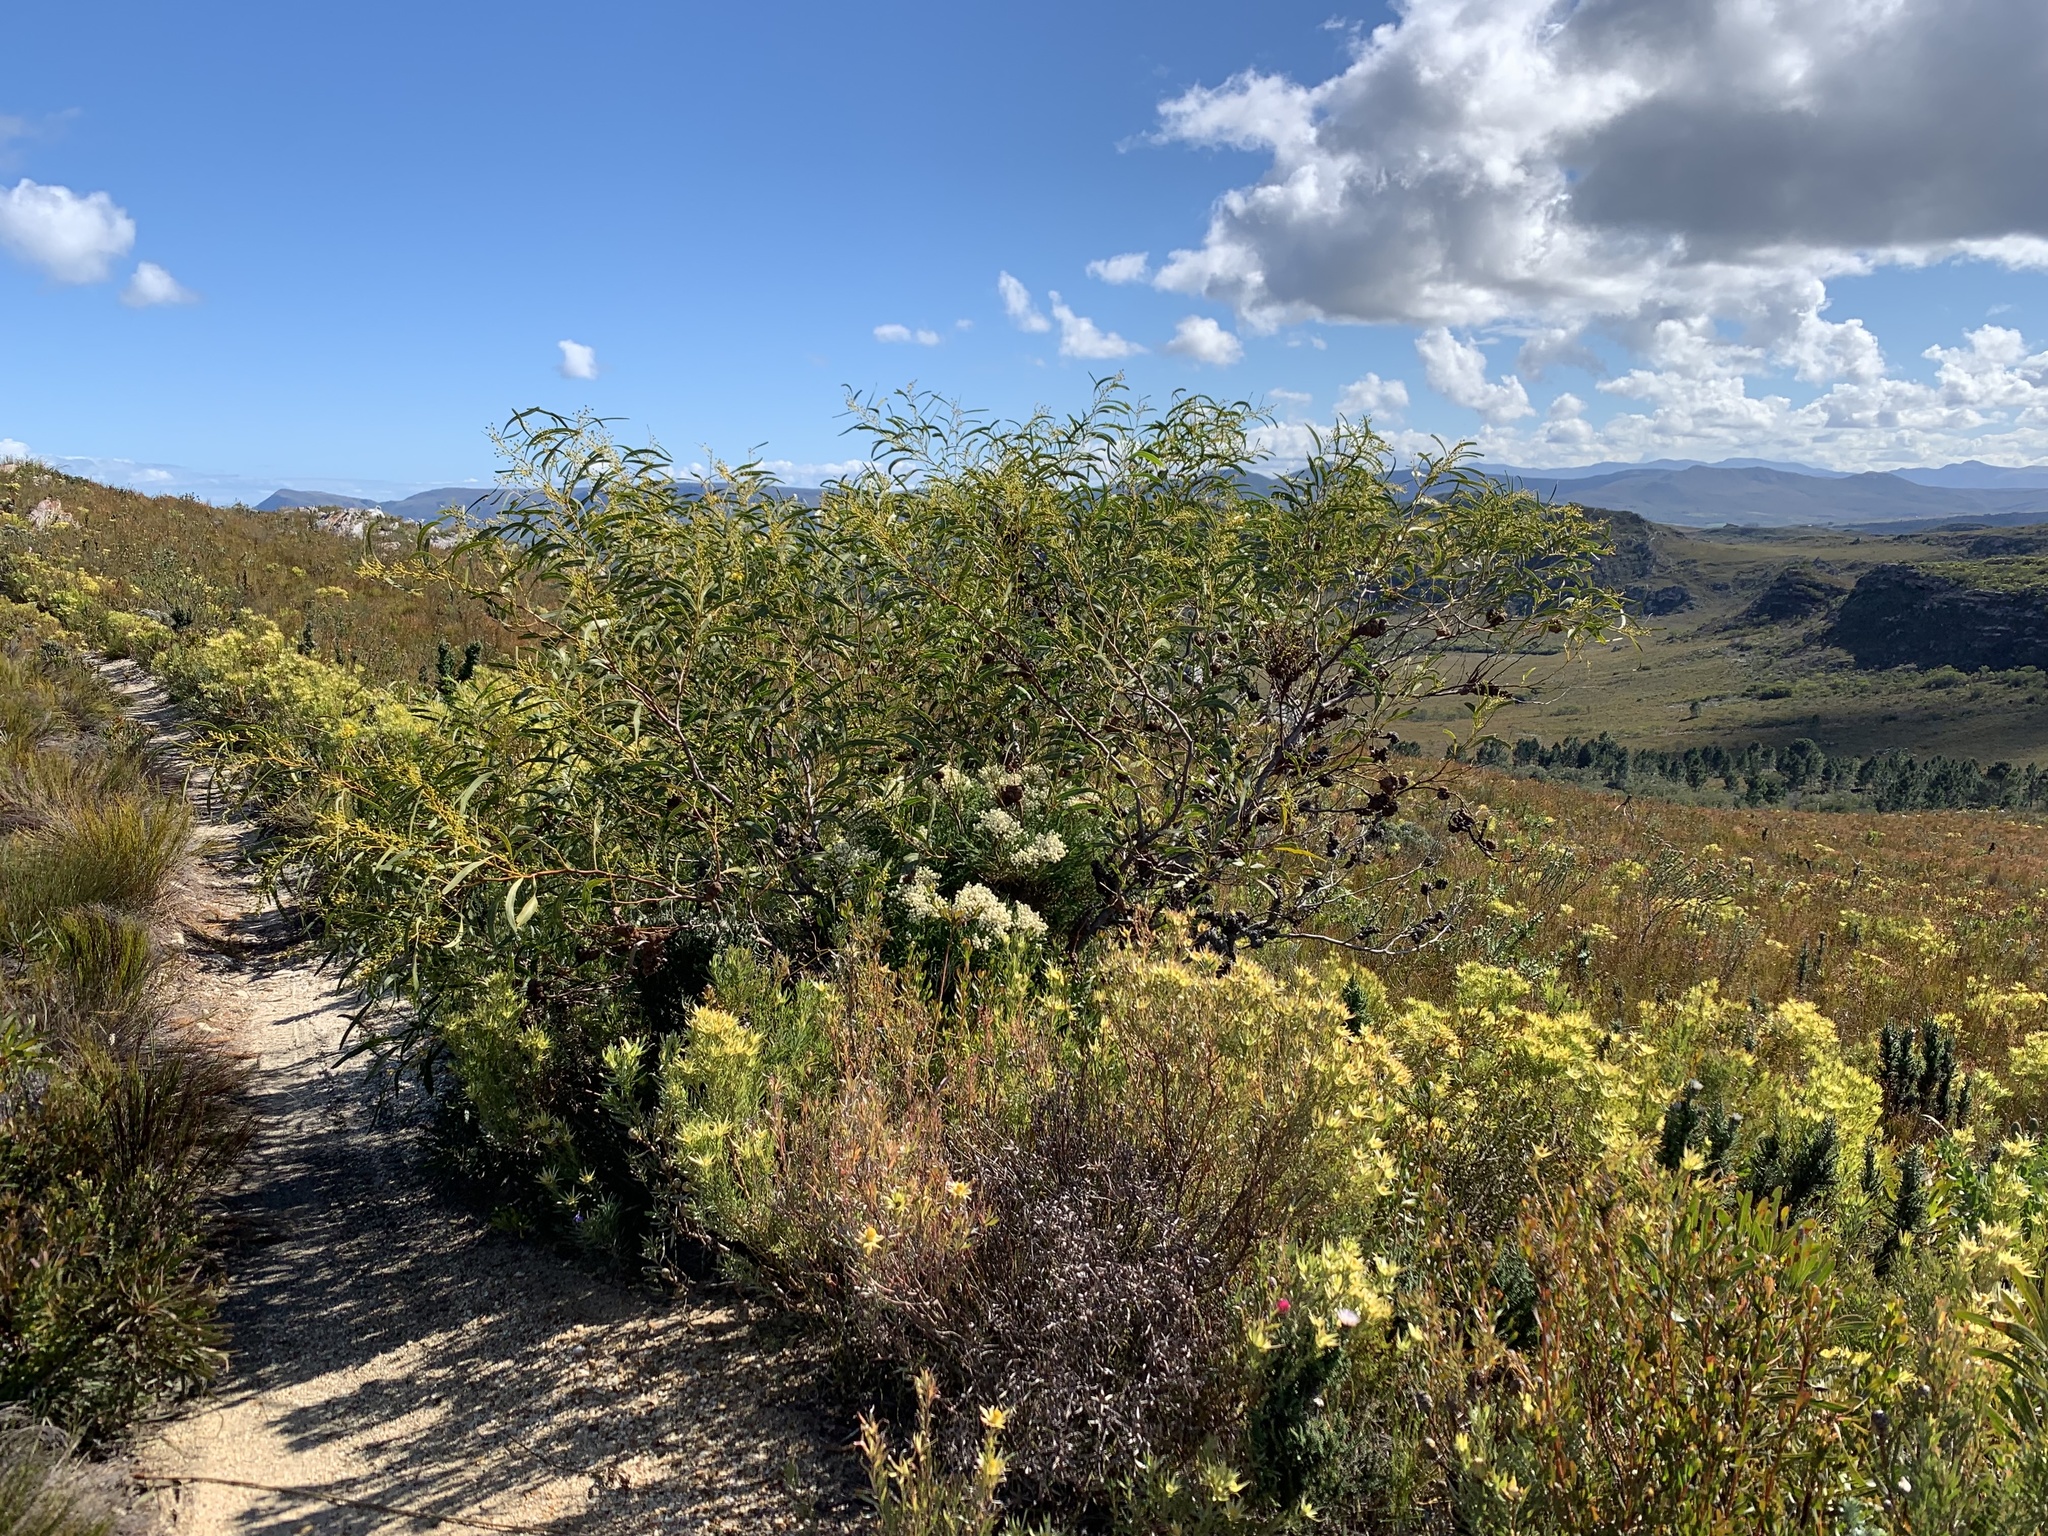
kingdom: Plantae
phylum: Tracheophyta
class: Magnoliopsida
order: Fabales
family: Fabaceae
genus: Acacia
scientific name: Acacia saligna
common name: Orange wattle
